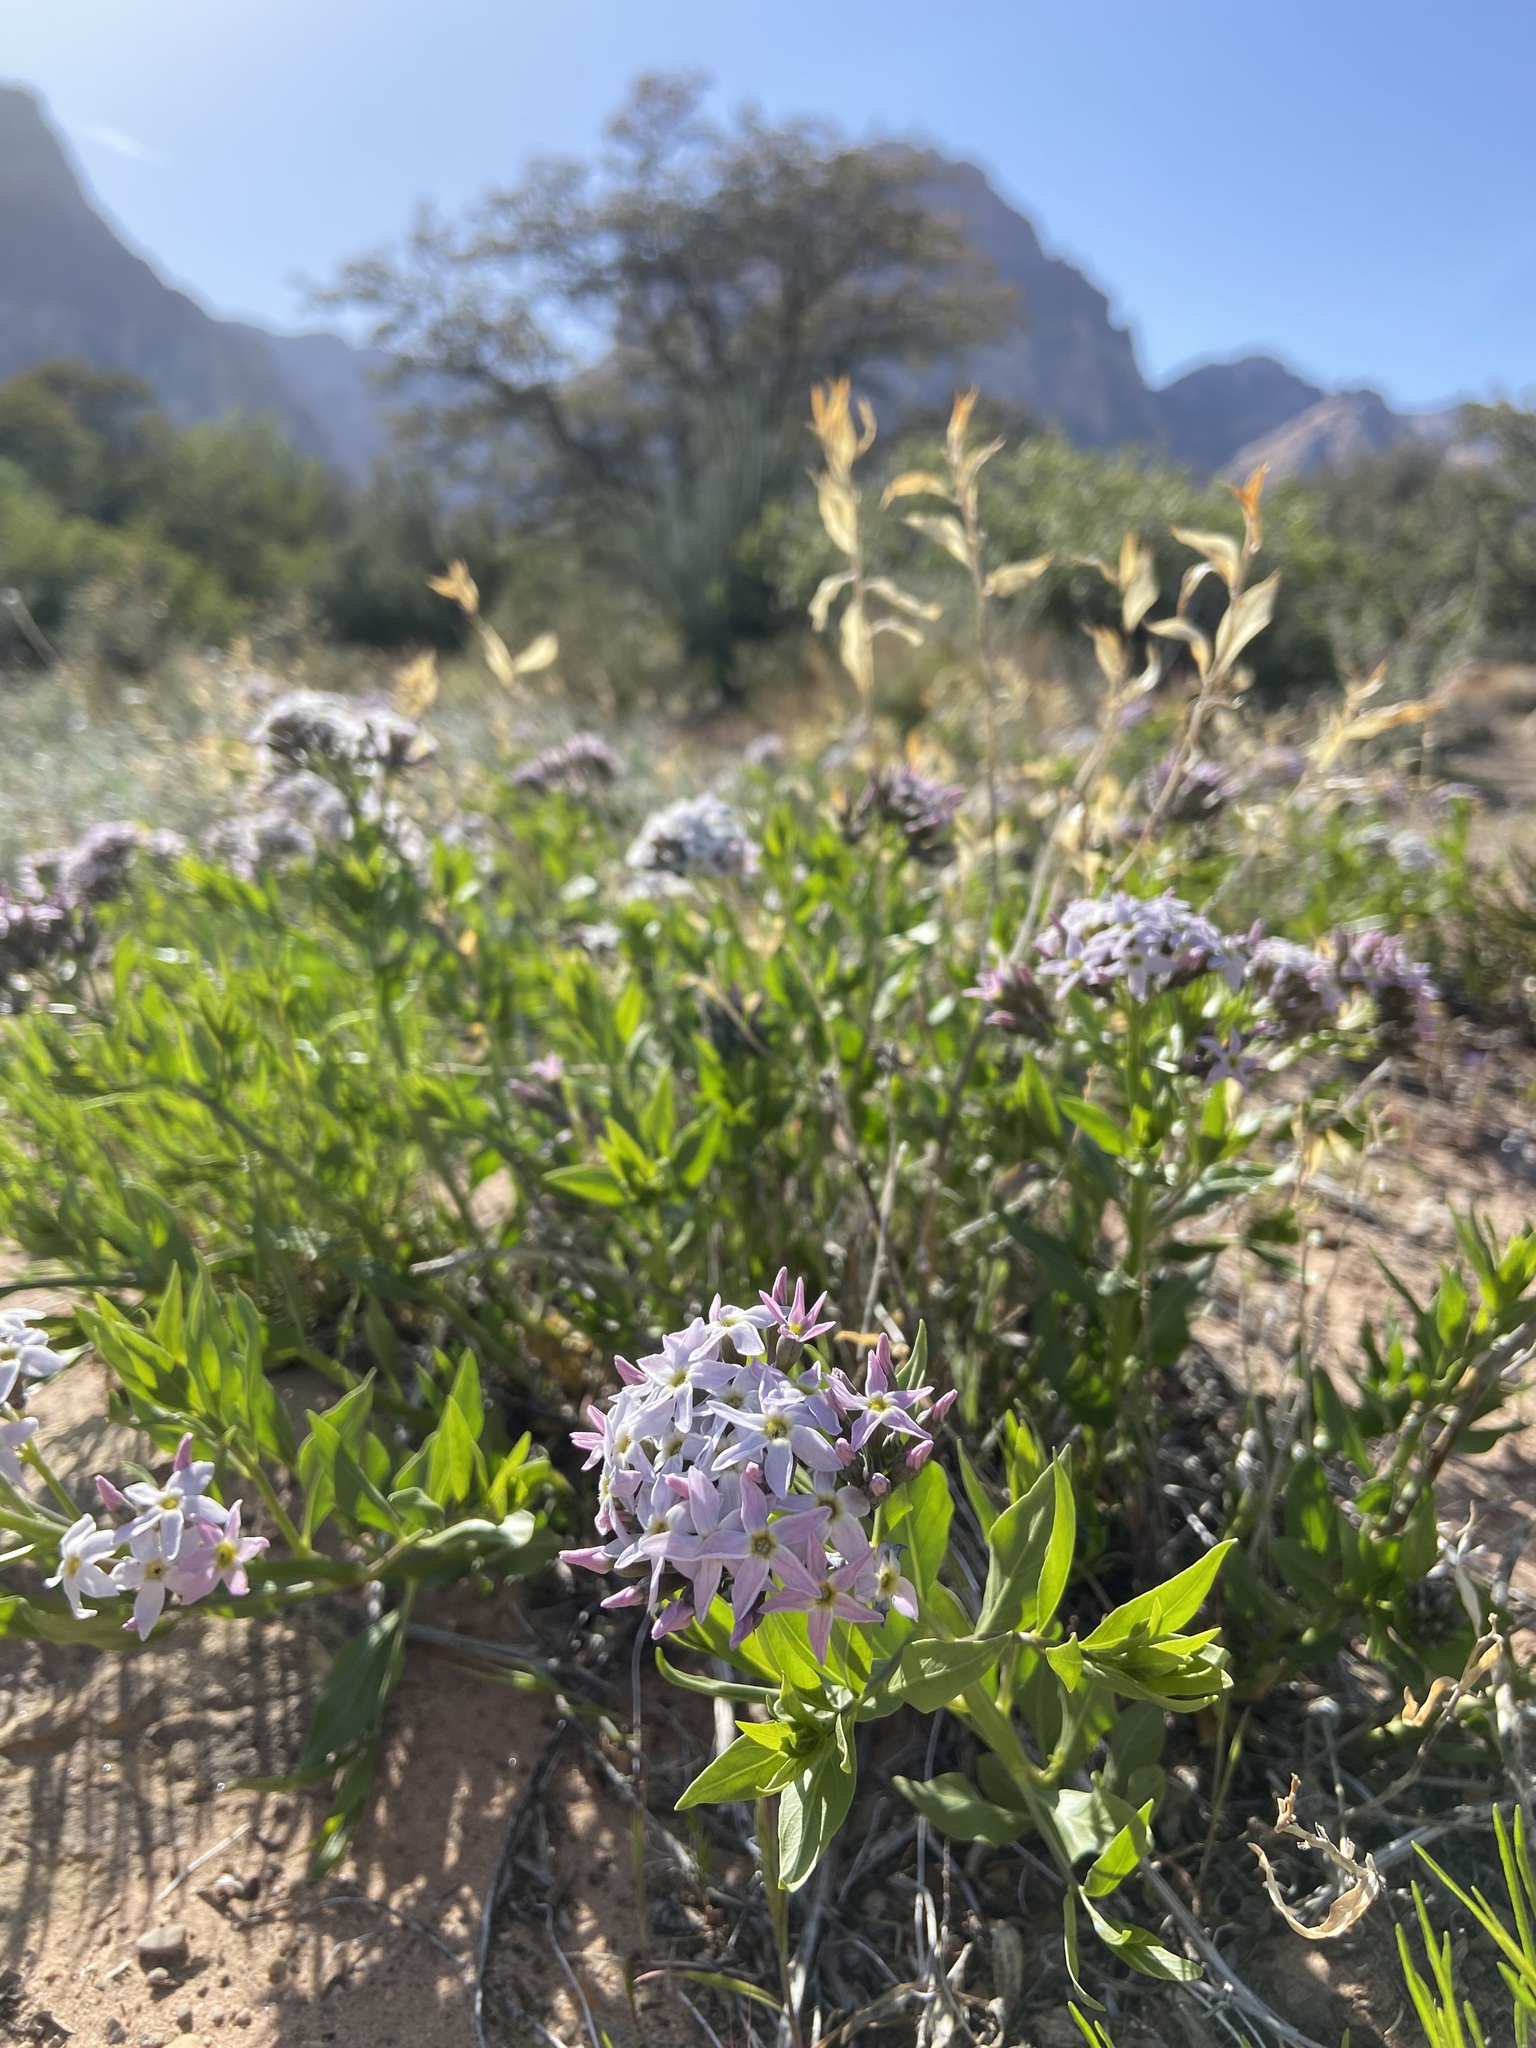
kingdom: Plantae
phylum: Tracheophyta
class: Magnoliopsida
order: Gentianales
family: Apocynaceae
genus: Amsonia
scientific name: Amsonia tomentosa
